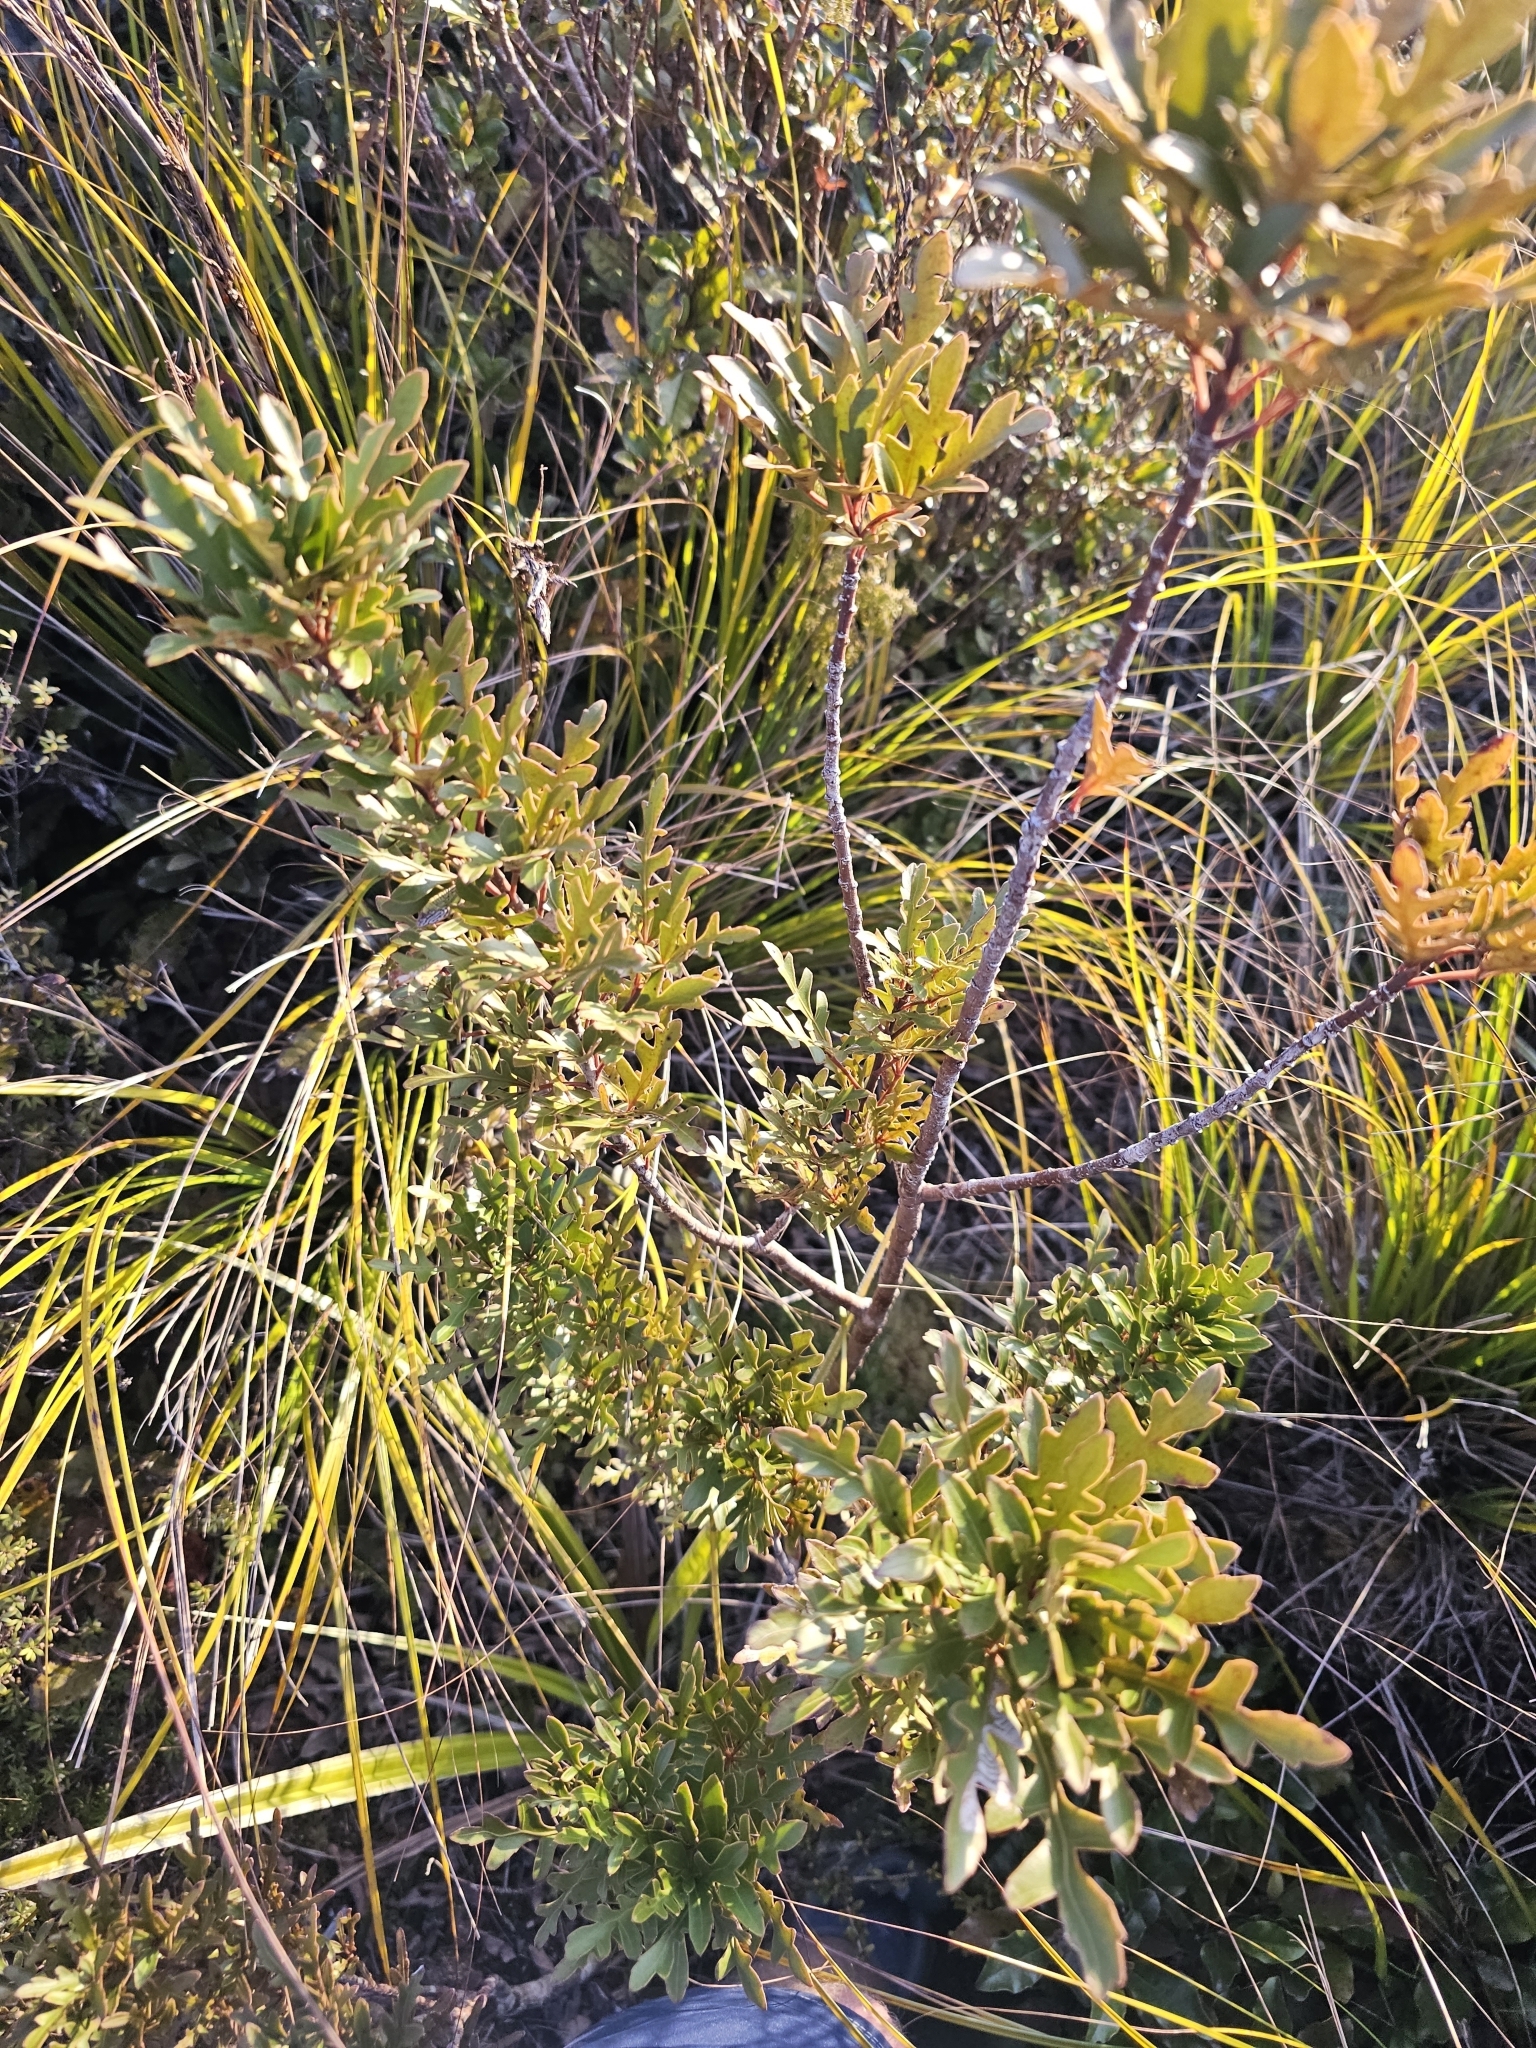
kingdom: Plantae
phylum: Tracheophyta
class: Magnoliopsida
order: Apiales
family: Araliaceae
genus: Raukaua
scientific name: Raukaua simplex
